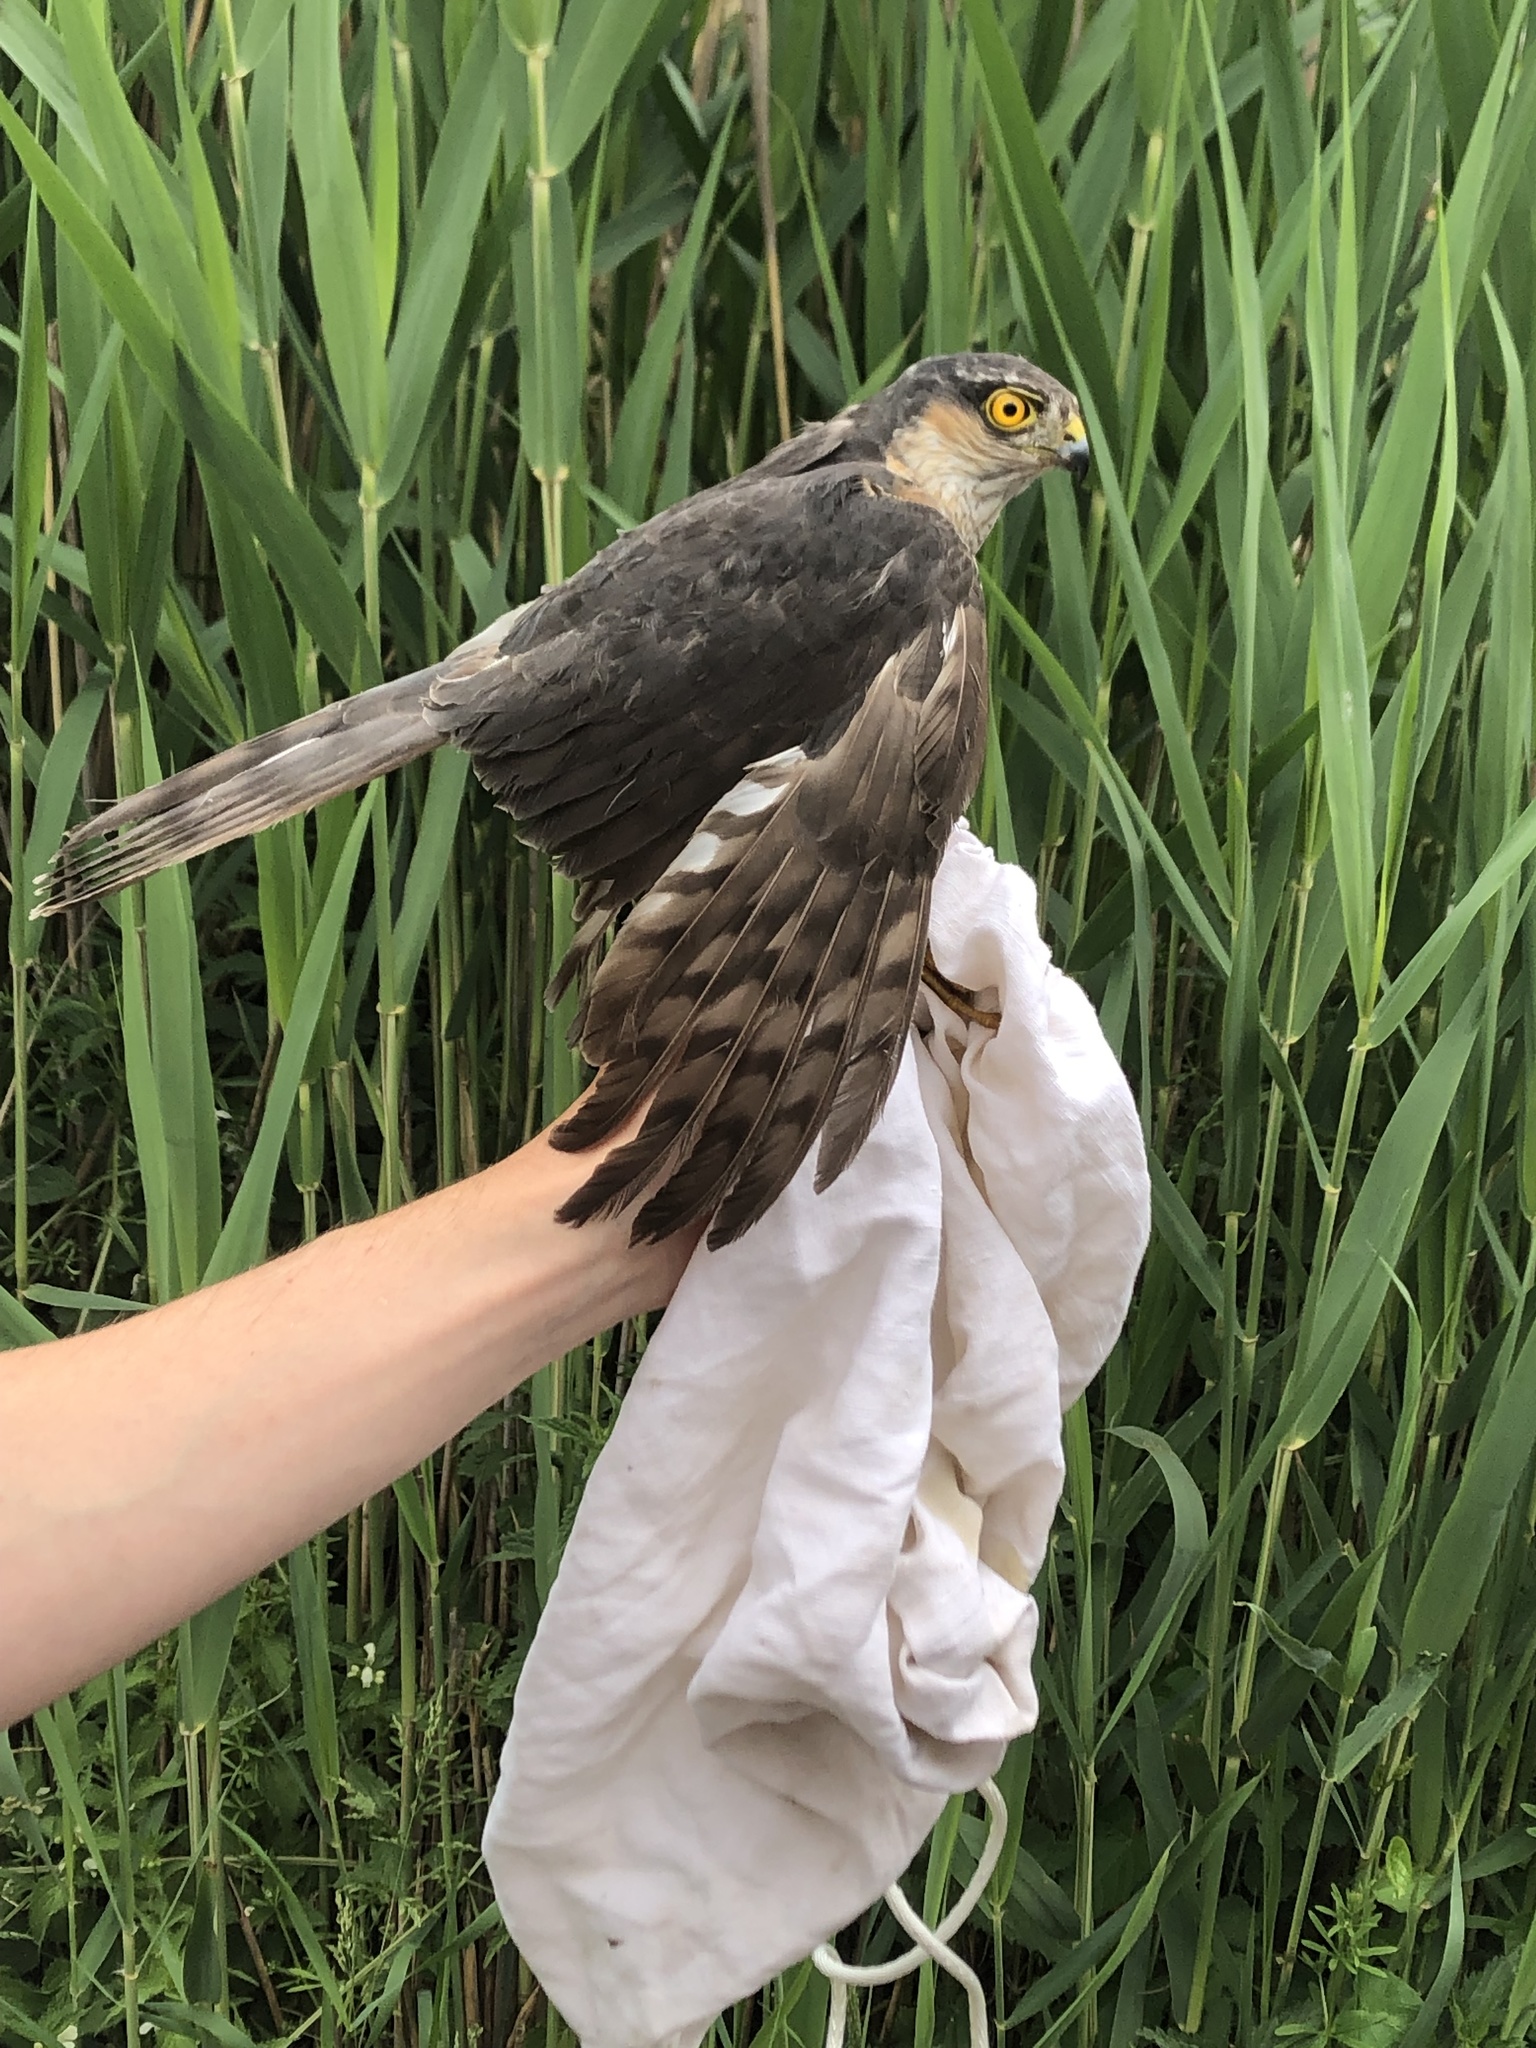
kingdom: Animalia
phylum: Chordata
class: Aves
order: Accipitriformes
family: Accipitridae
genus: Accipiter
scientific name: Accipiter nisus
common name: Eurasian sparrowhawk
